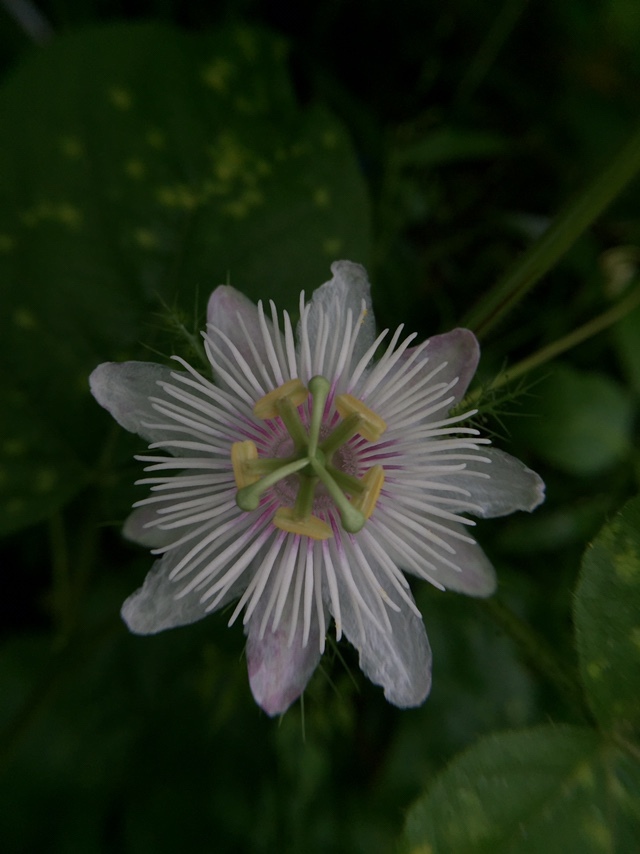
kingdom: Plantae
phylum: Tracheophyta
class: Magnoliopsida
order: Malpighiales
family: Passifloraceae
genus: Passiflora
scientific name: Passiflora foetida
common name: Fetid passionflower
